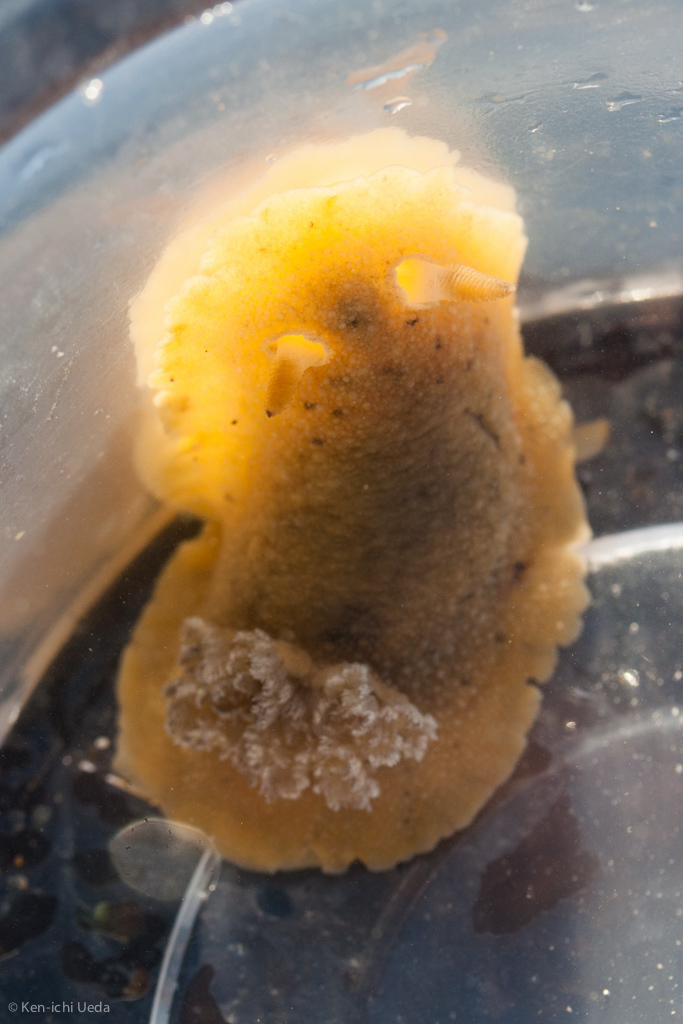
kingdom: Animalia
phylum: Mollusca
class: Gastropoda
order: Nudibranchia
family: Discodorididae
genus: Geitodoris
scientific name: Geitodoris heathi
